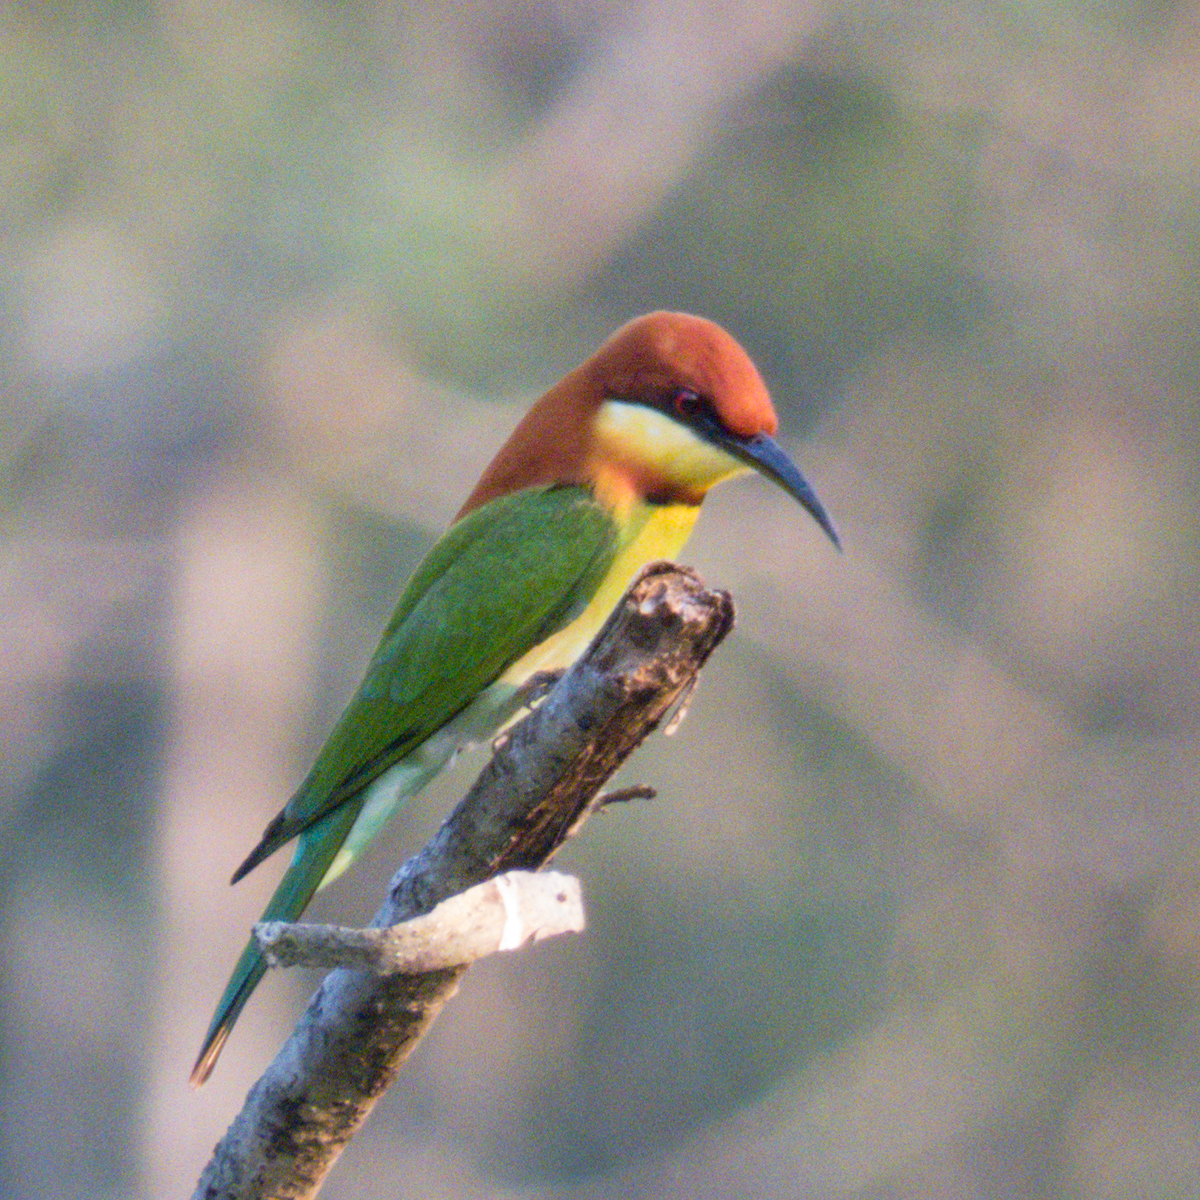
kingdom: Animalia
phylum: Chordata
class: Aves
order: Coraciiformes
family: Meropidae
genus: Merops
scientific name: Merops leschenaulti
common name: Chestnut-headed bee-eater
